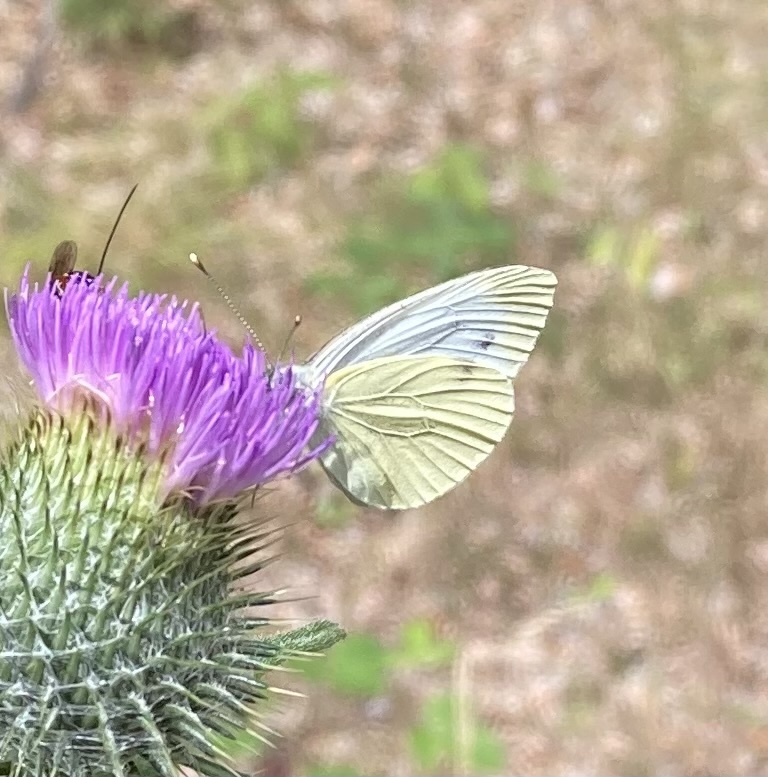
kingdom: Animalia
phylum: Arthropoda
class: Insecta
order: Lepidoptera
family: Pieridae
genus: Pieris
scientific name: Pieris napi
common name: Green-veined white
